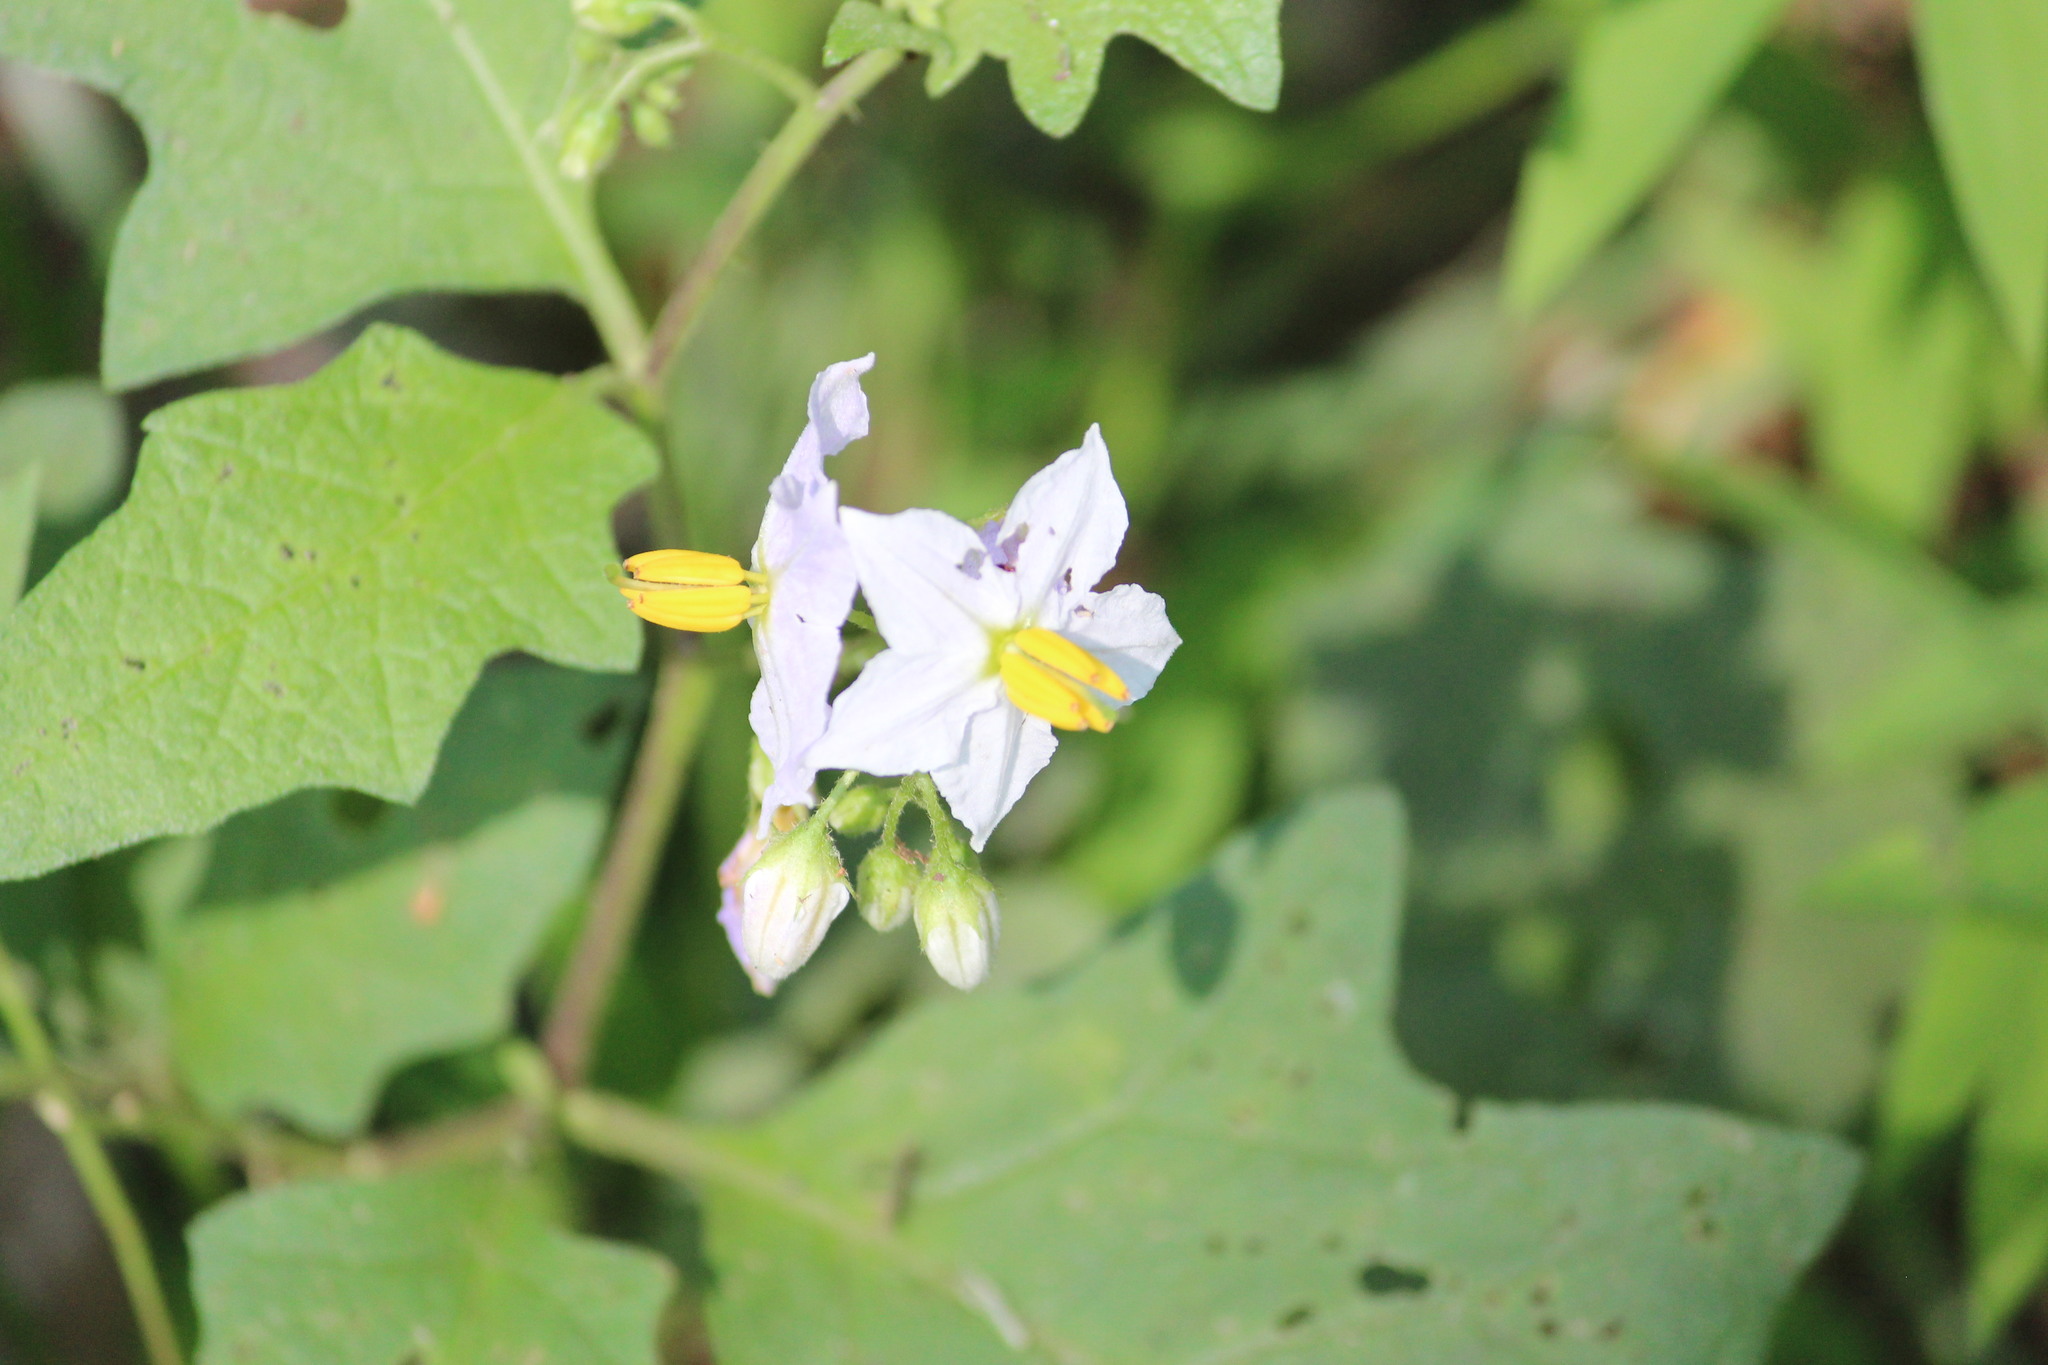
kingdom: Plantae
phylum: Tracheophyta
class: Magnoliopsida
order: Solanales
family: Solanaceae
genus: Solanum
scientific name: Solanum carolinense
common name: Horse-nettle
